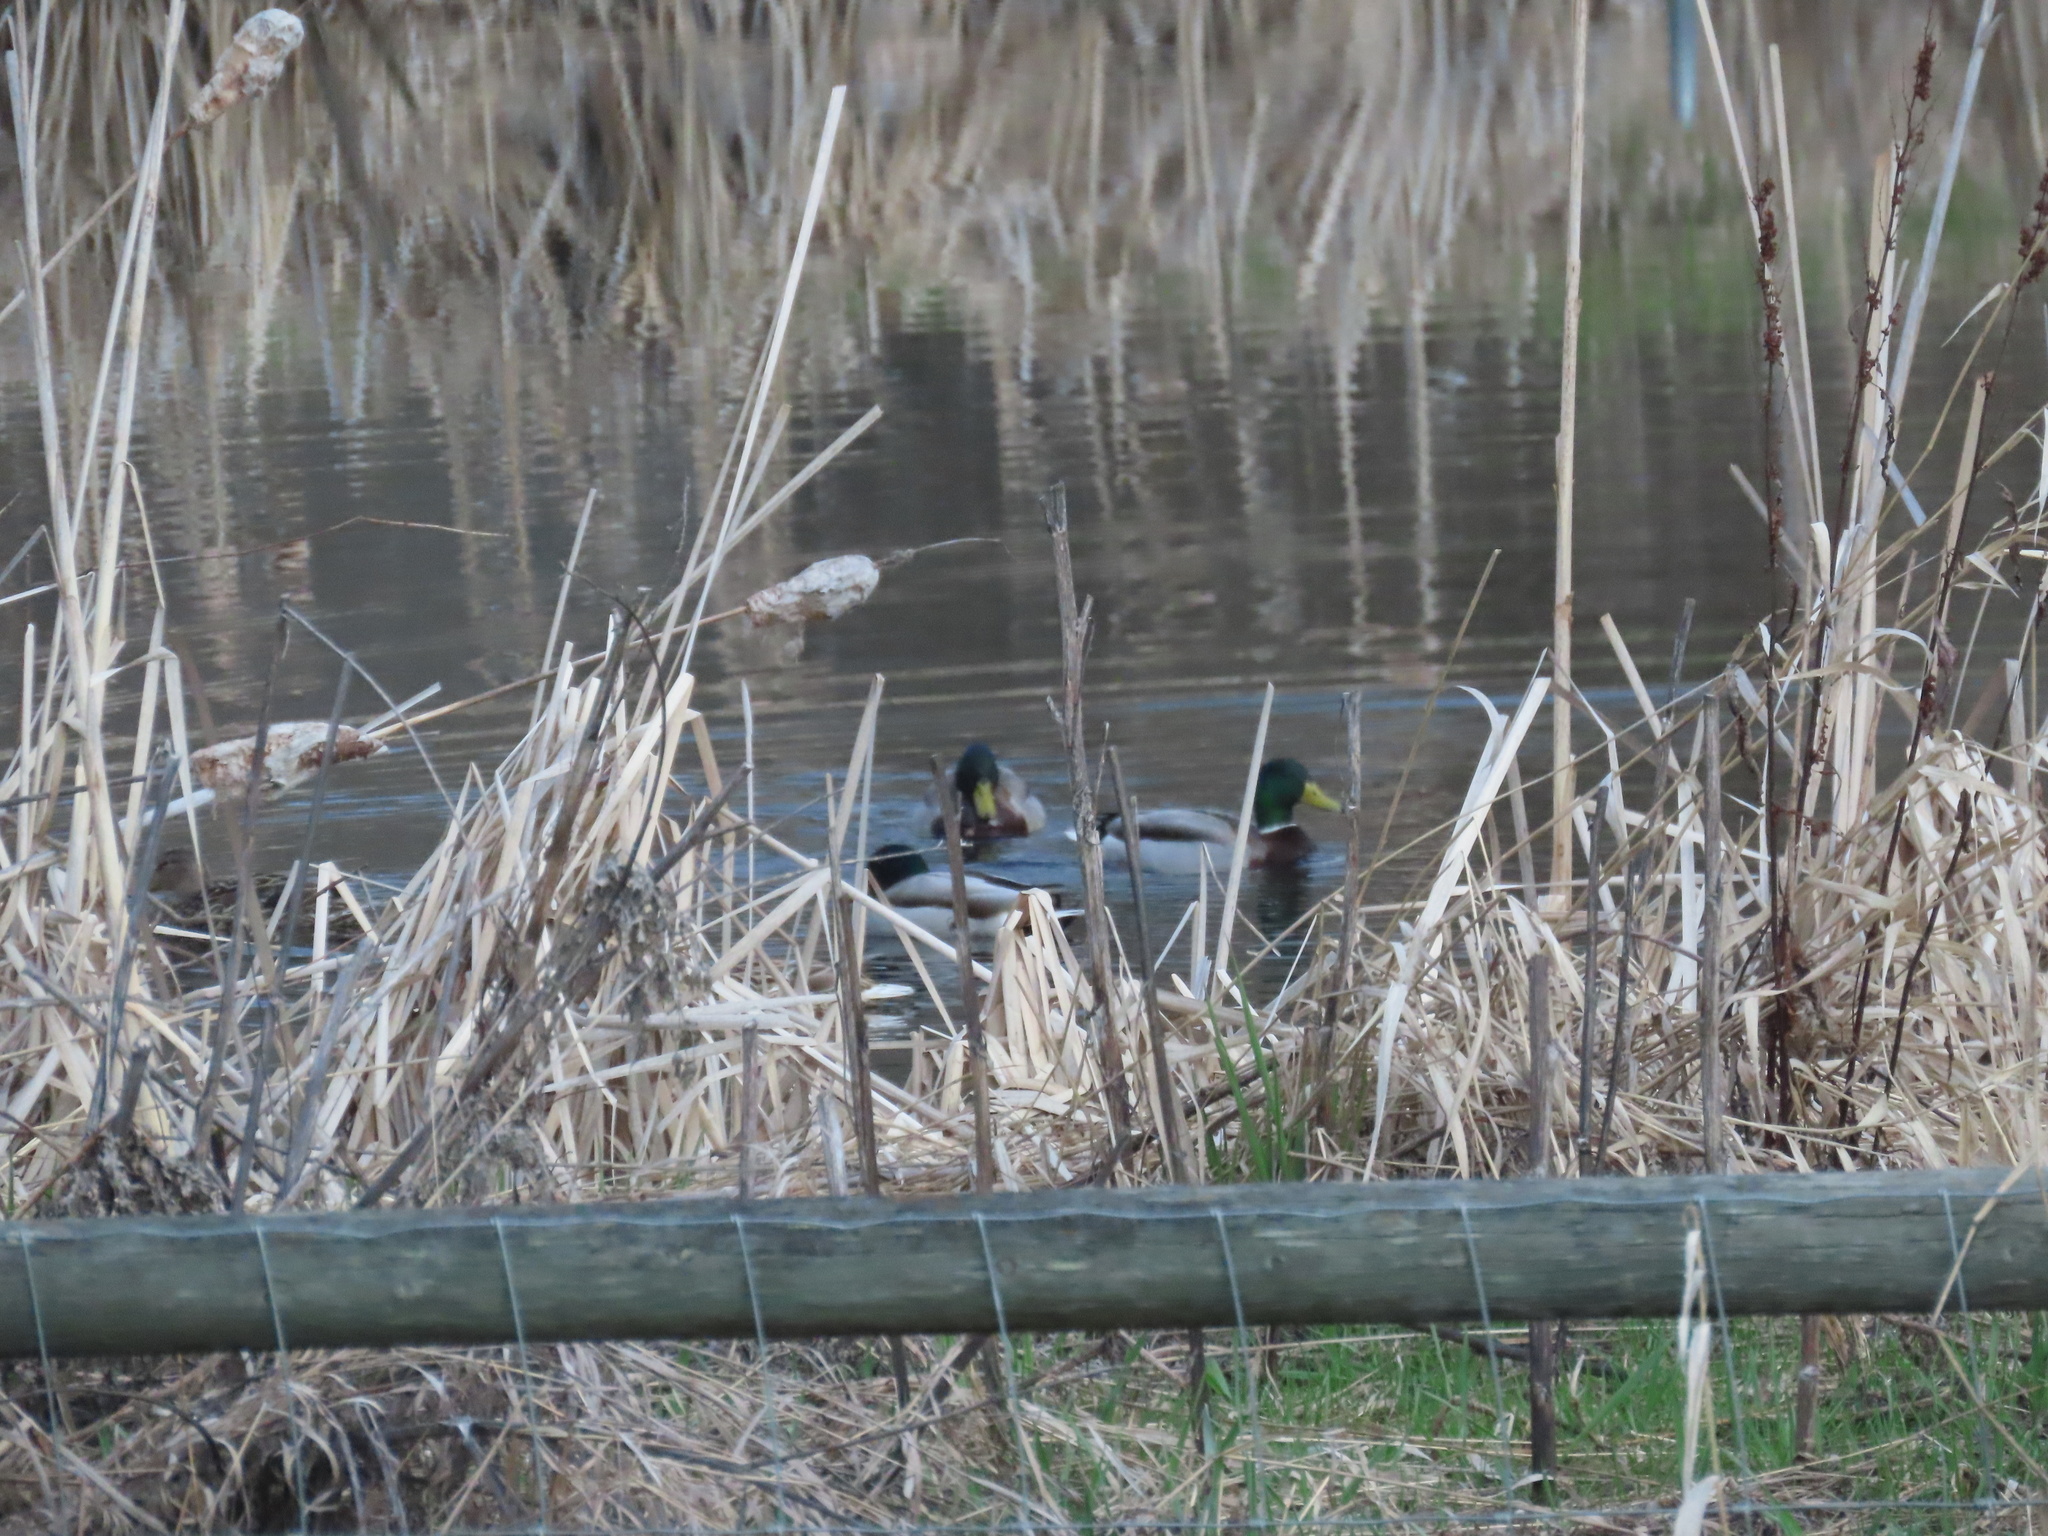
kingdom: Animalia
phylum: Chordata
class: Aves
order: Anseriformes
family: Anatidae
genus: Anas
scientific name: Anas platyrhynchos
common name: Mallard
